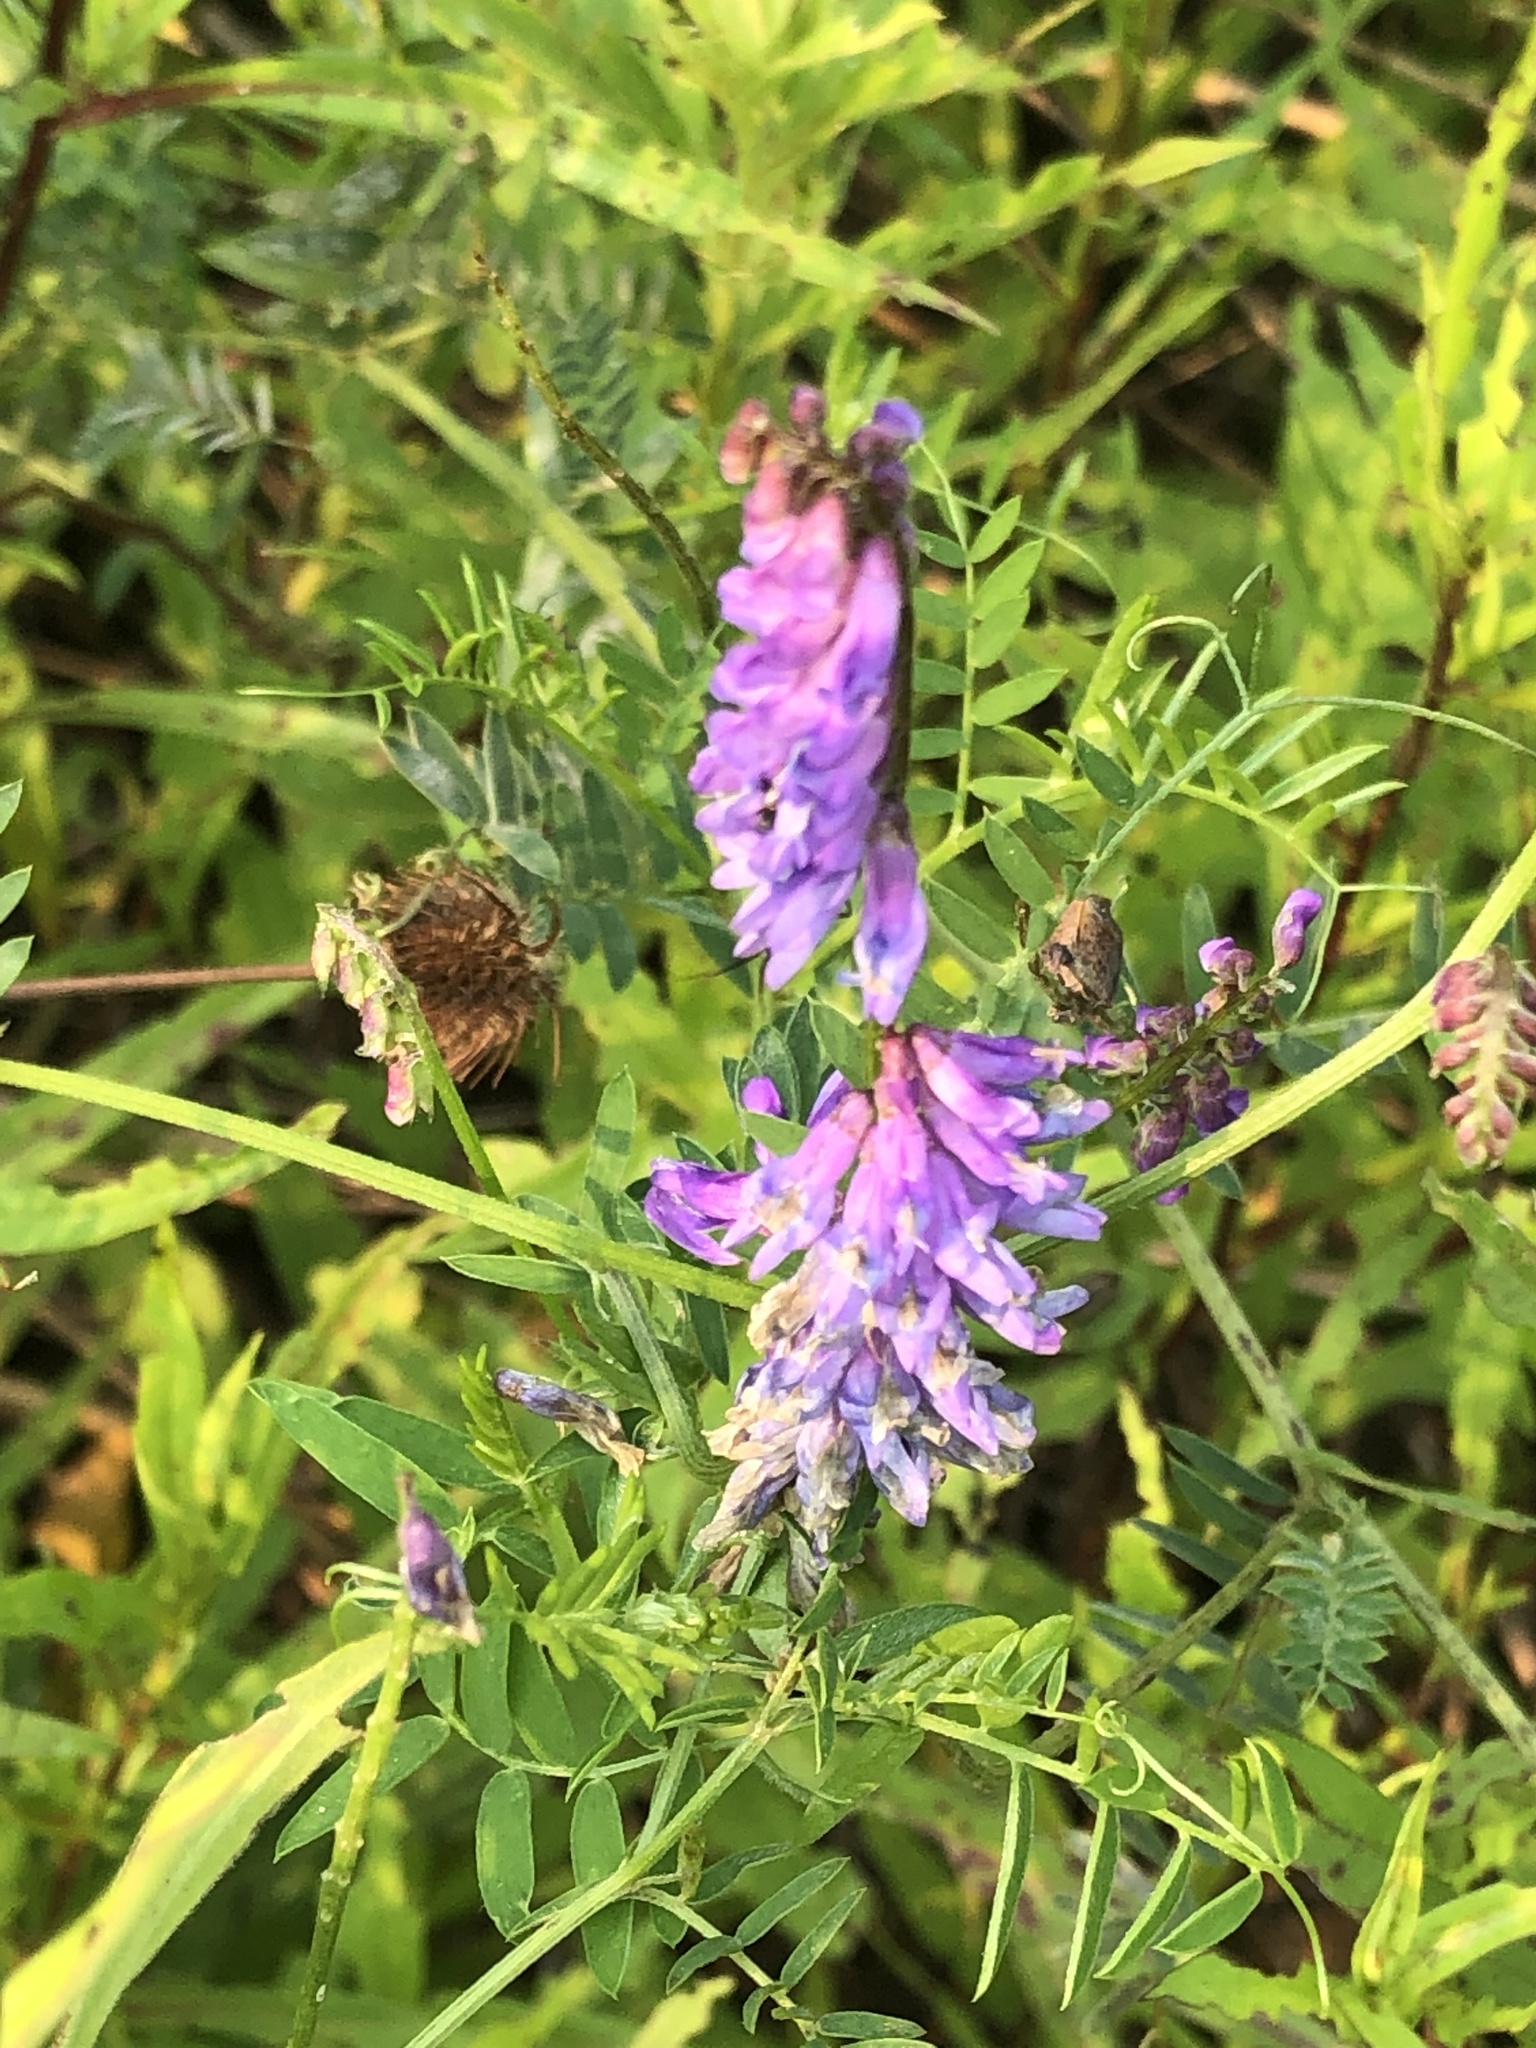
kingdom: Plantae
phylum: Tracheophyta
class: Magnoliopsida
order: Fabales
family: Fabaceae
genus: Vicia
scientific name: Vicia cracca
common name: Bird vetch
